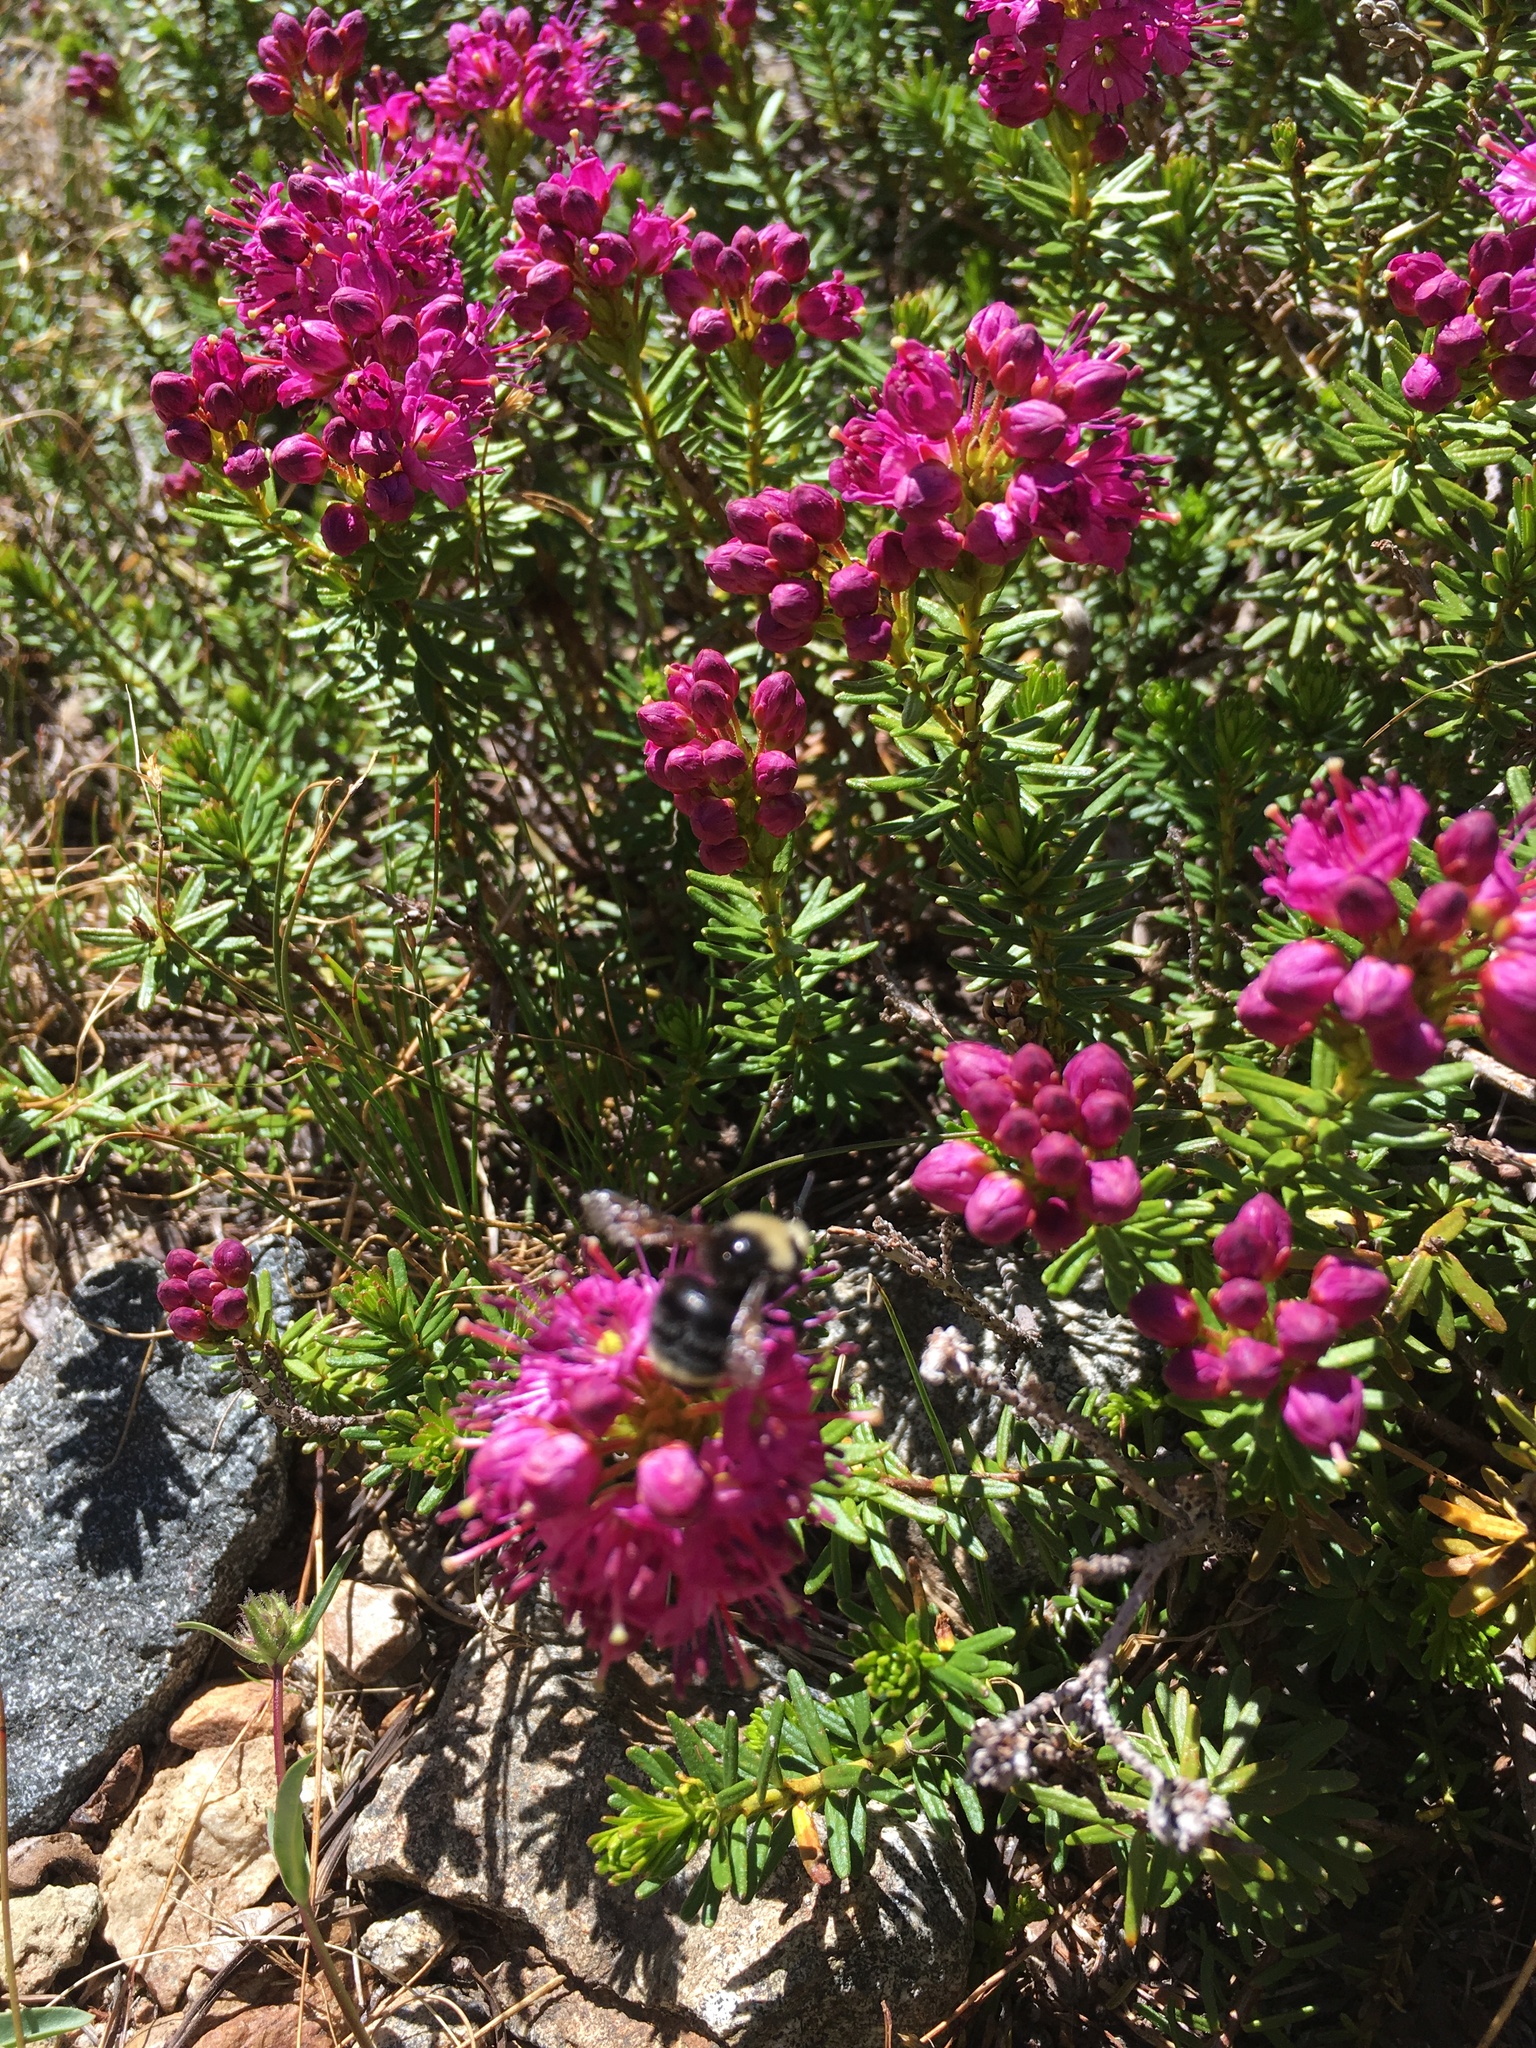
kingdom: Plantae
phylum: Tracheophyta
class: Magnoliopsida
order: Ericales
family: Ericaceae
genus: Phyllodoce
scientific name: Phyllodoce breweri
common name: Brewer's mountain-heather
